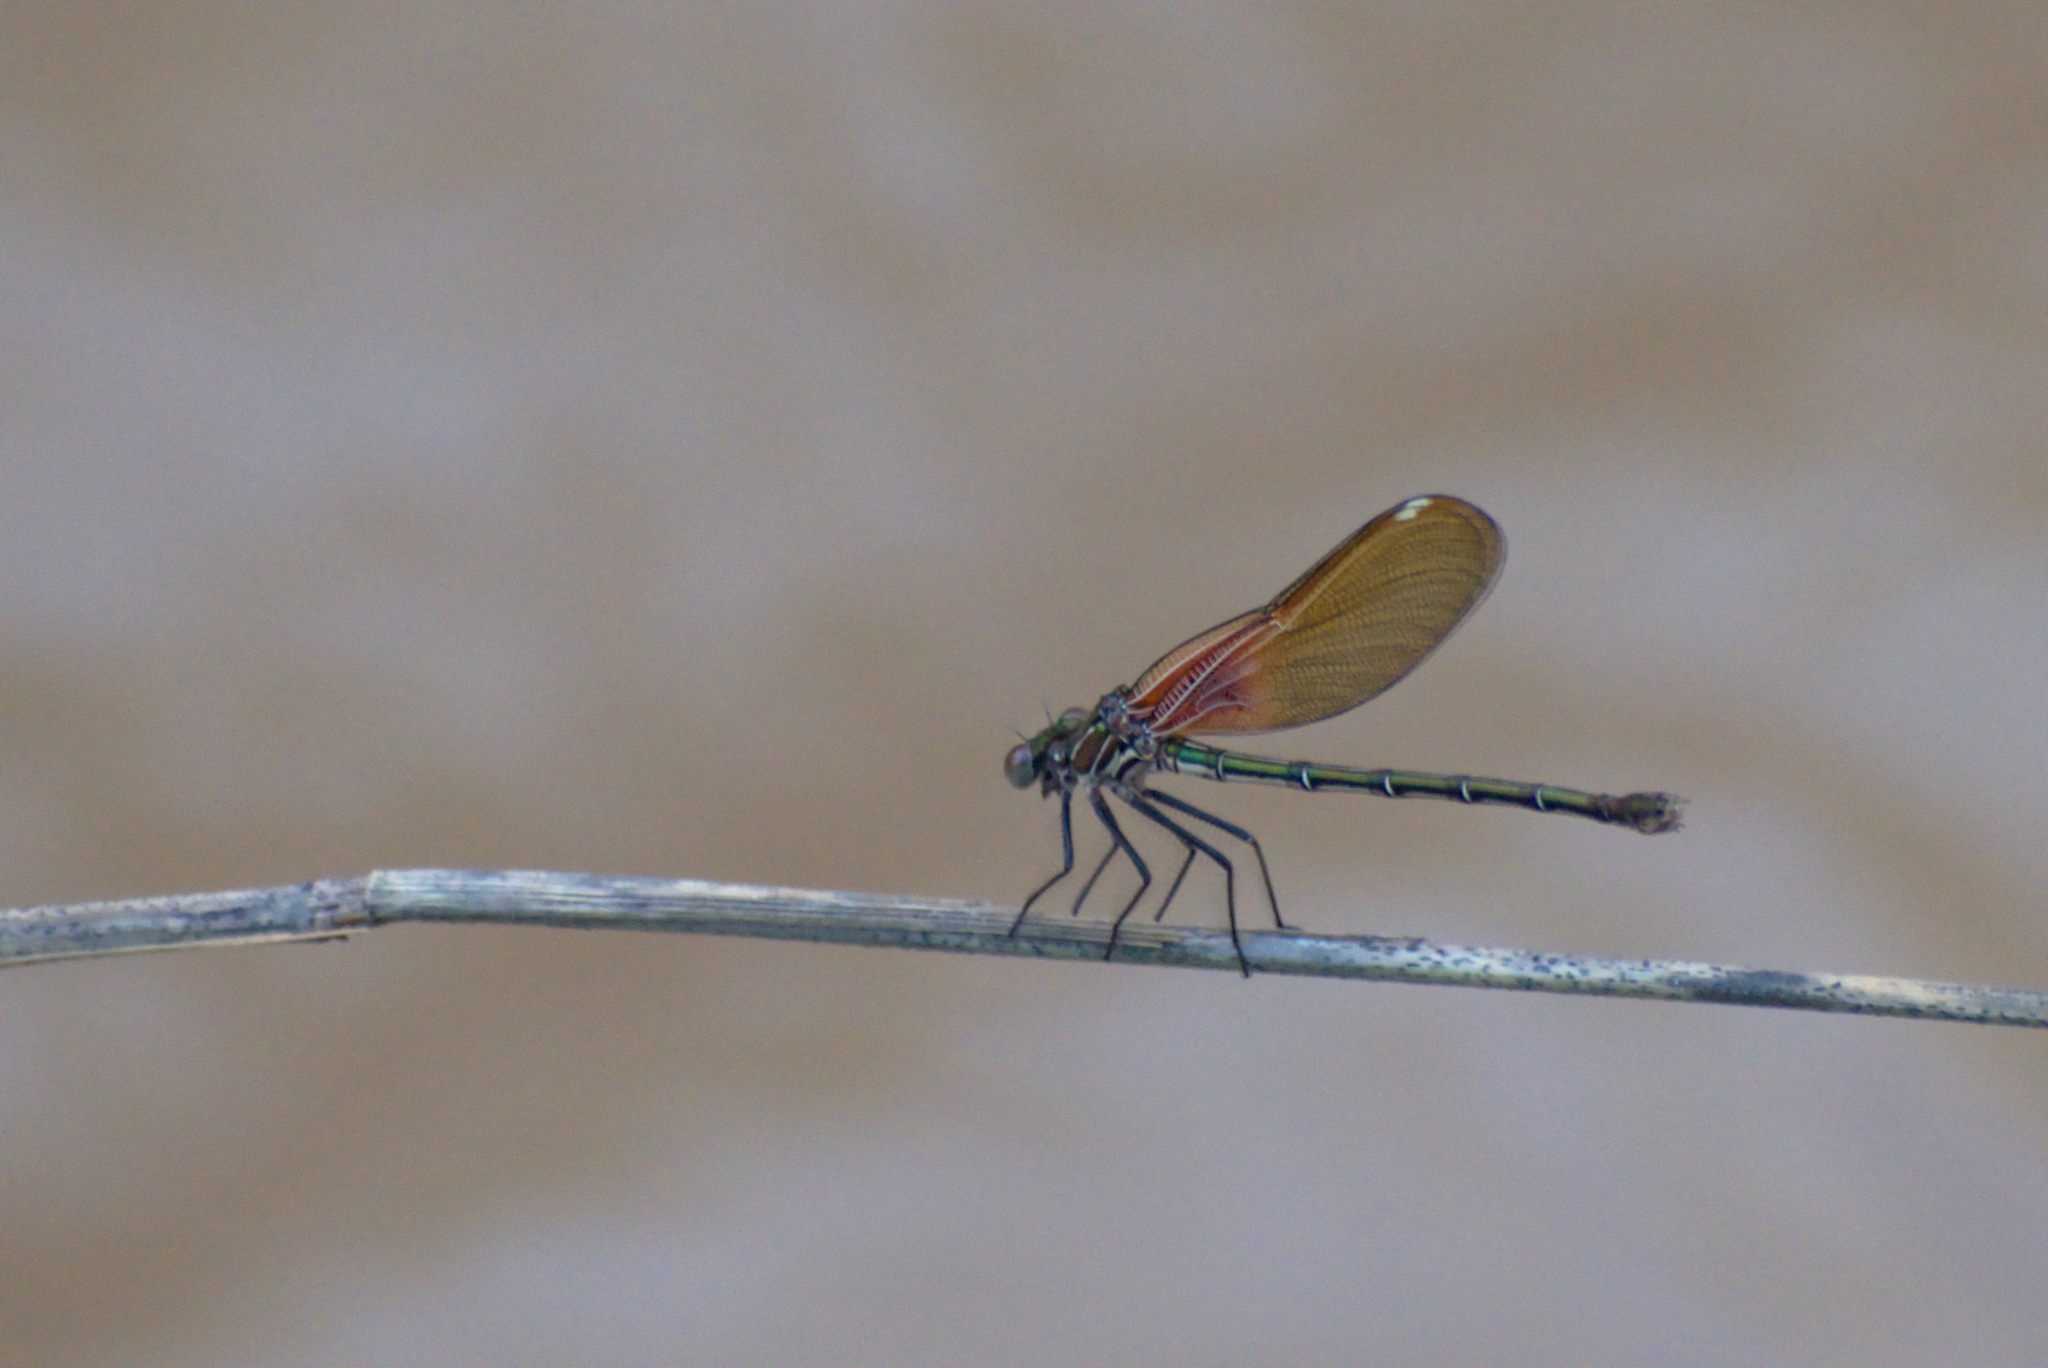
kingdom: Animalia
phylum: Arthropoda
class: Insecta
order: Odonata
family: Calopterygidae
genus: Hetaerina
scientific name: Hetaerina americana
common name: American rubyspot
